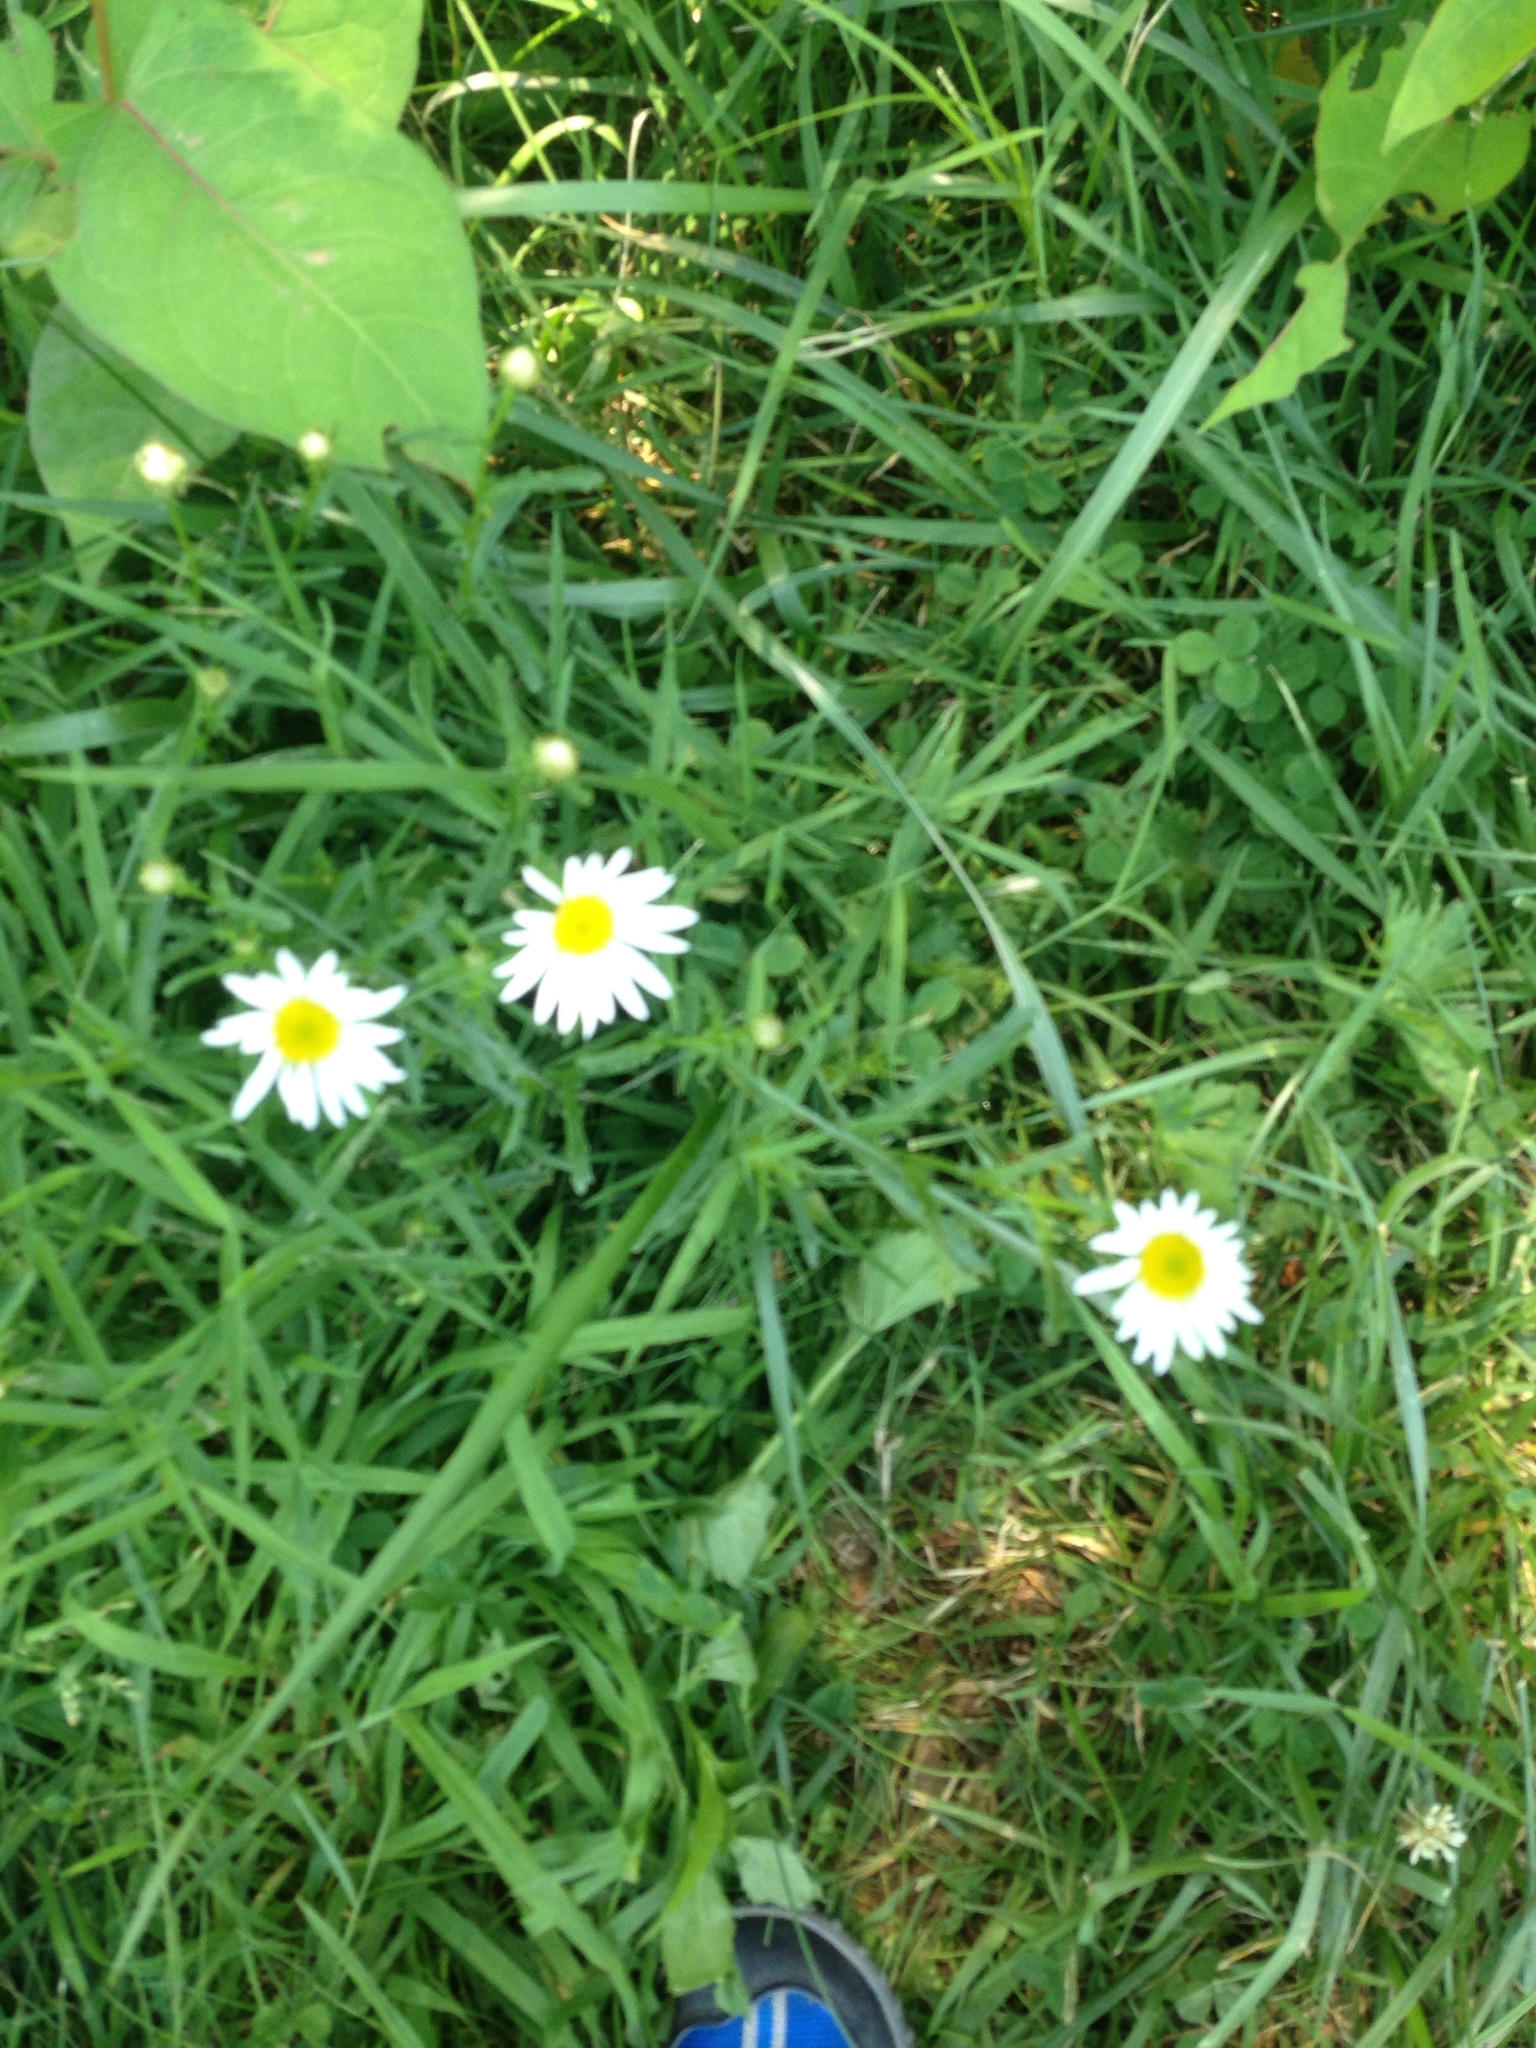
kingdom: Plantae
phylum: Tracheophyta
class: Magnoliopsida
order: Asterales
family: Asteraceae
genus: Leucanthemum
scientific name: Leucanthemum vulgare
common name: Oxeye daisy
